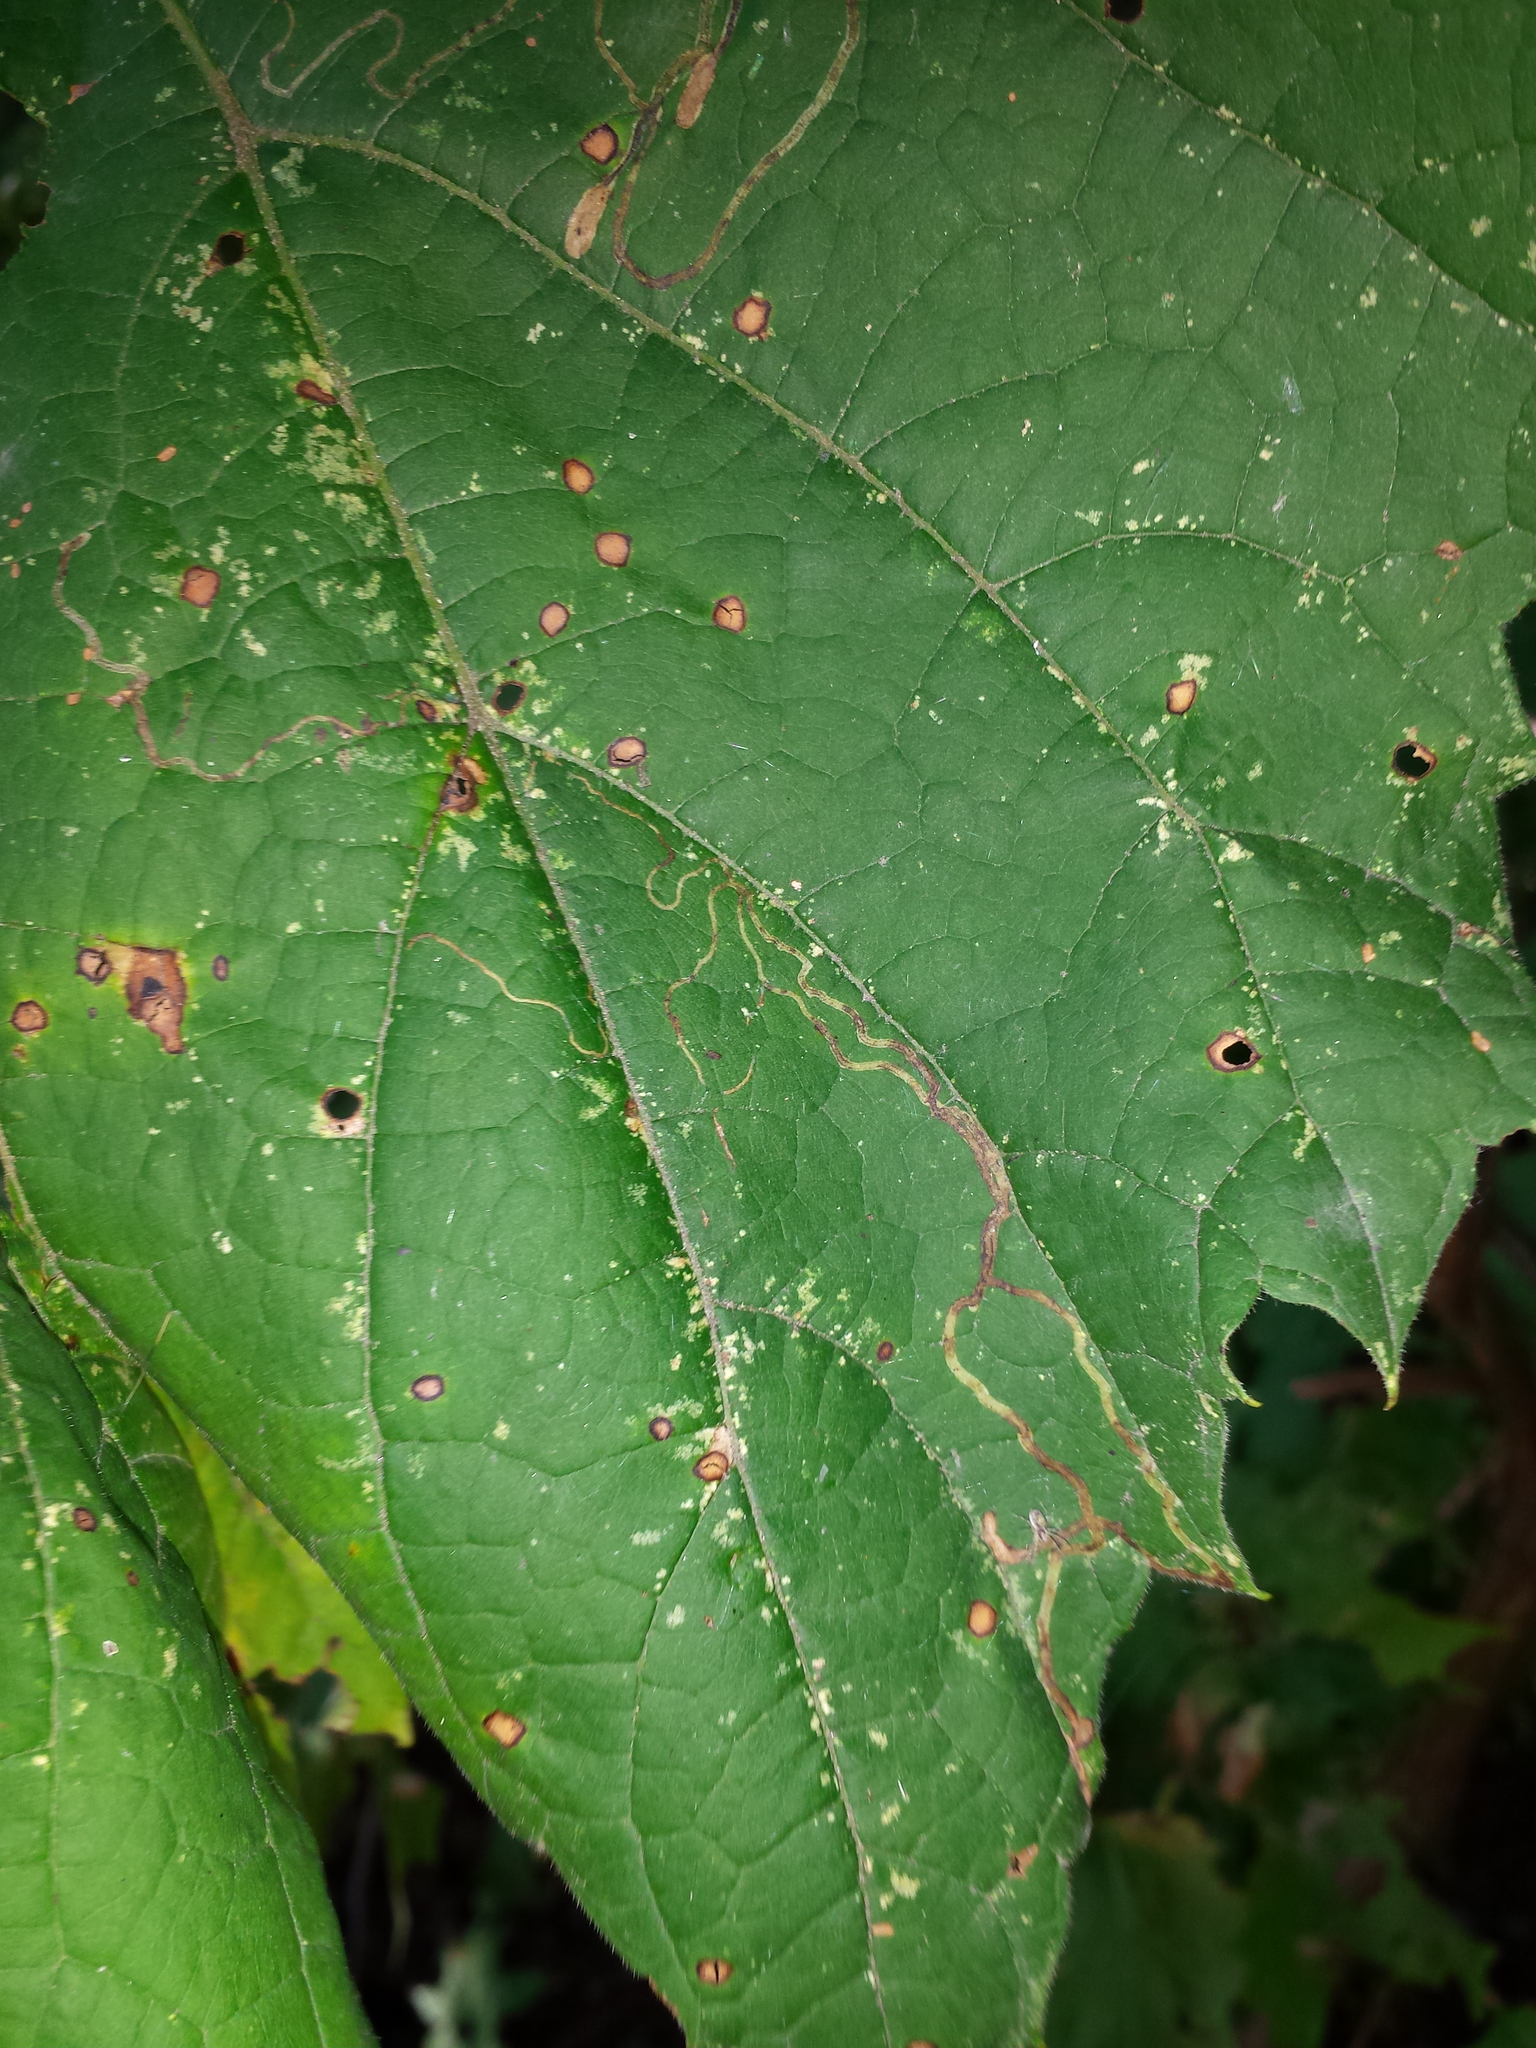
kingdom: Animalia
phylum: Arthropoda
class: Insecta
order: Lepidoptera
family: Gracillariidae
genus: Phyllocnistis
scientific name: Phyllocnistis vitifoliella
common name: Grape leaf-miner moth
